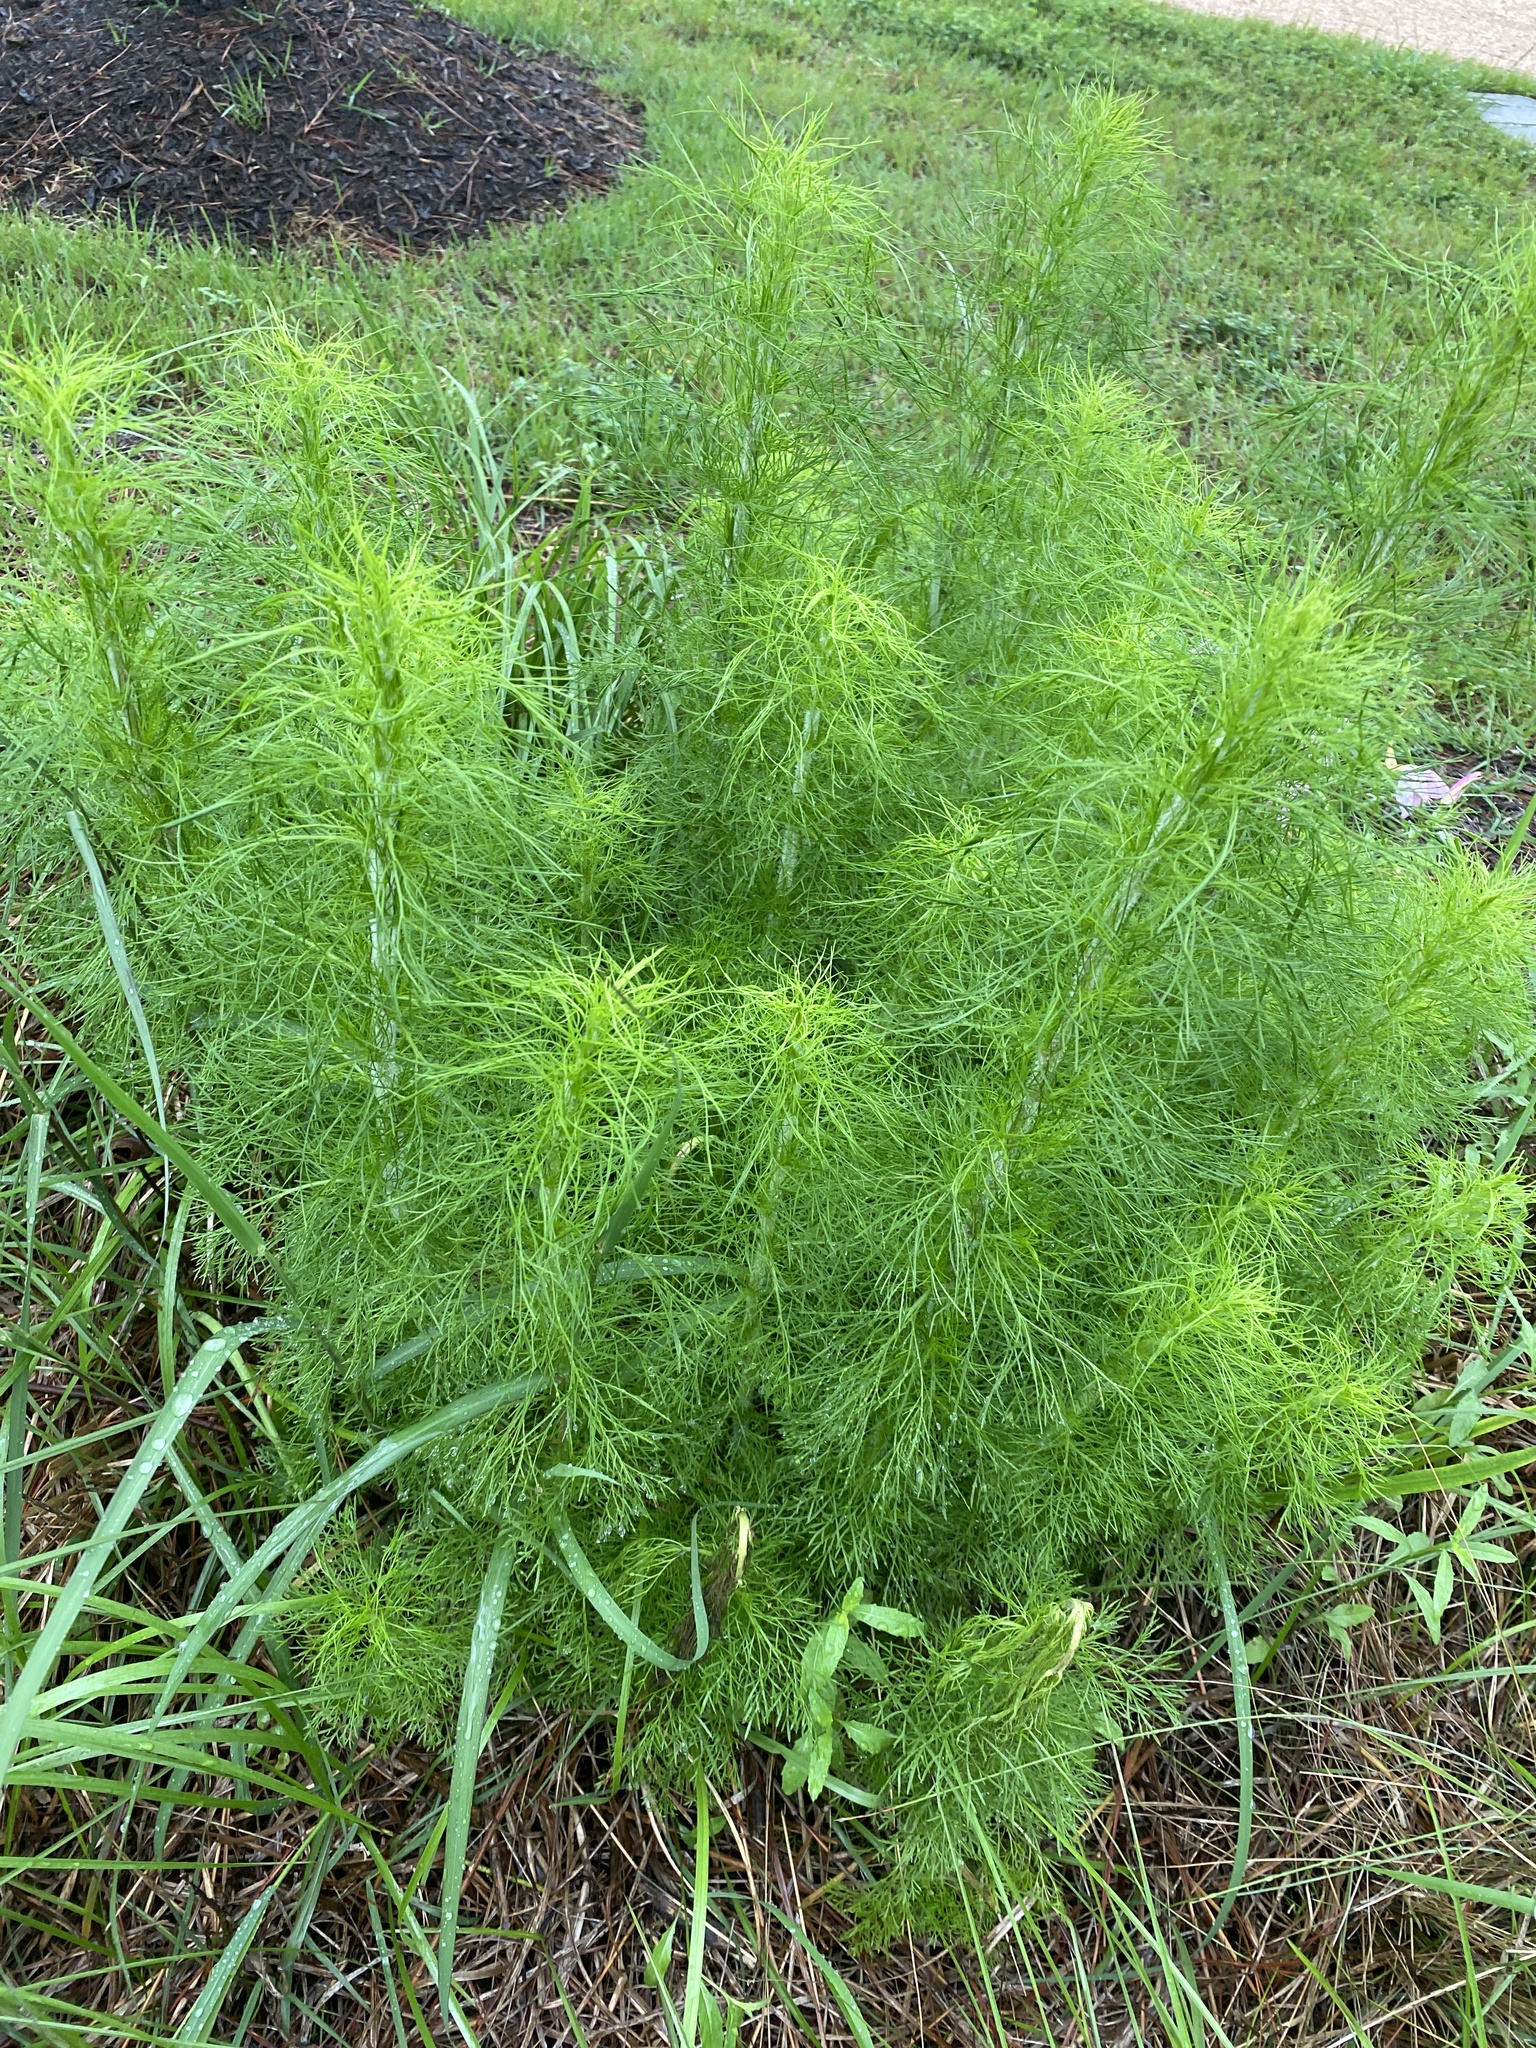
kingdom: Plantae
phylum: Tracheophyta
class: Magnoliopsida
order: Asterales
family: Asteraceae
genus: Eupatorium
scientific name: Eupatorium capillifolium
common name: Dog-fennel
